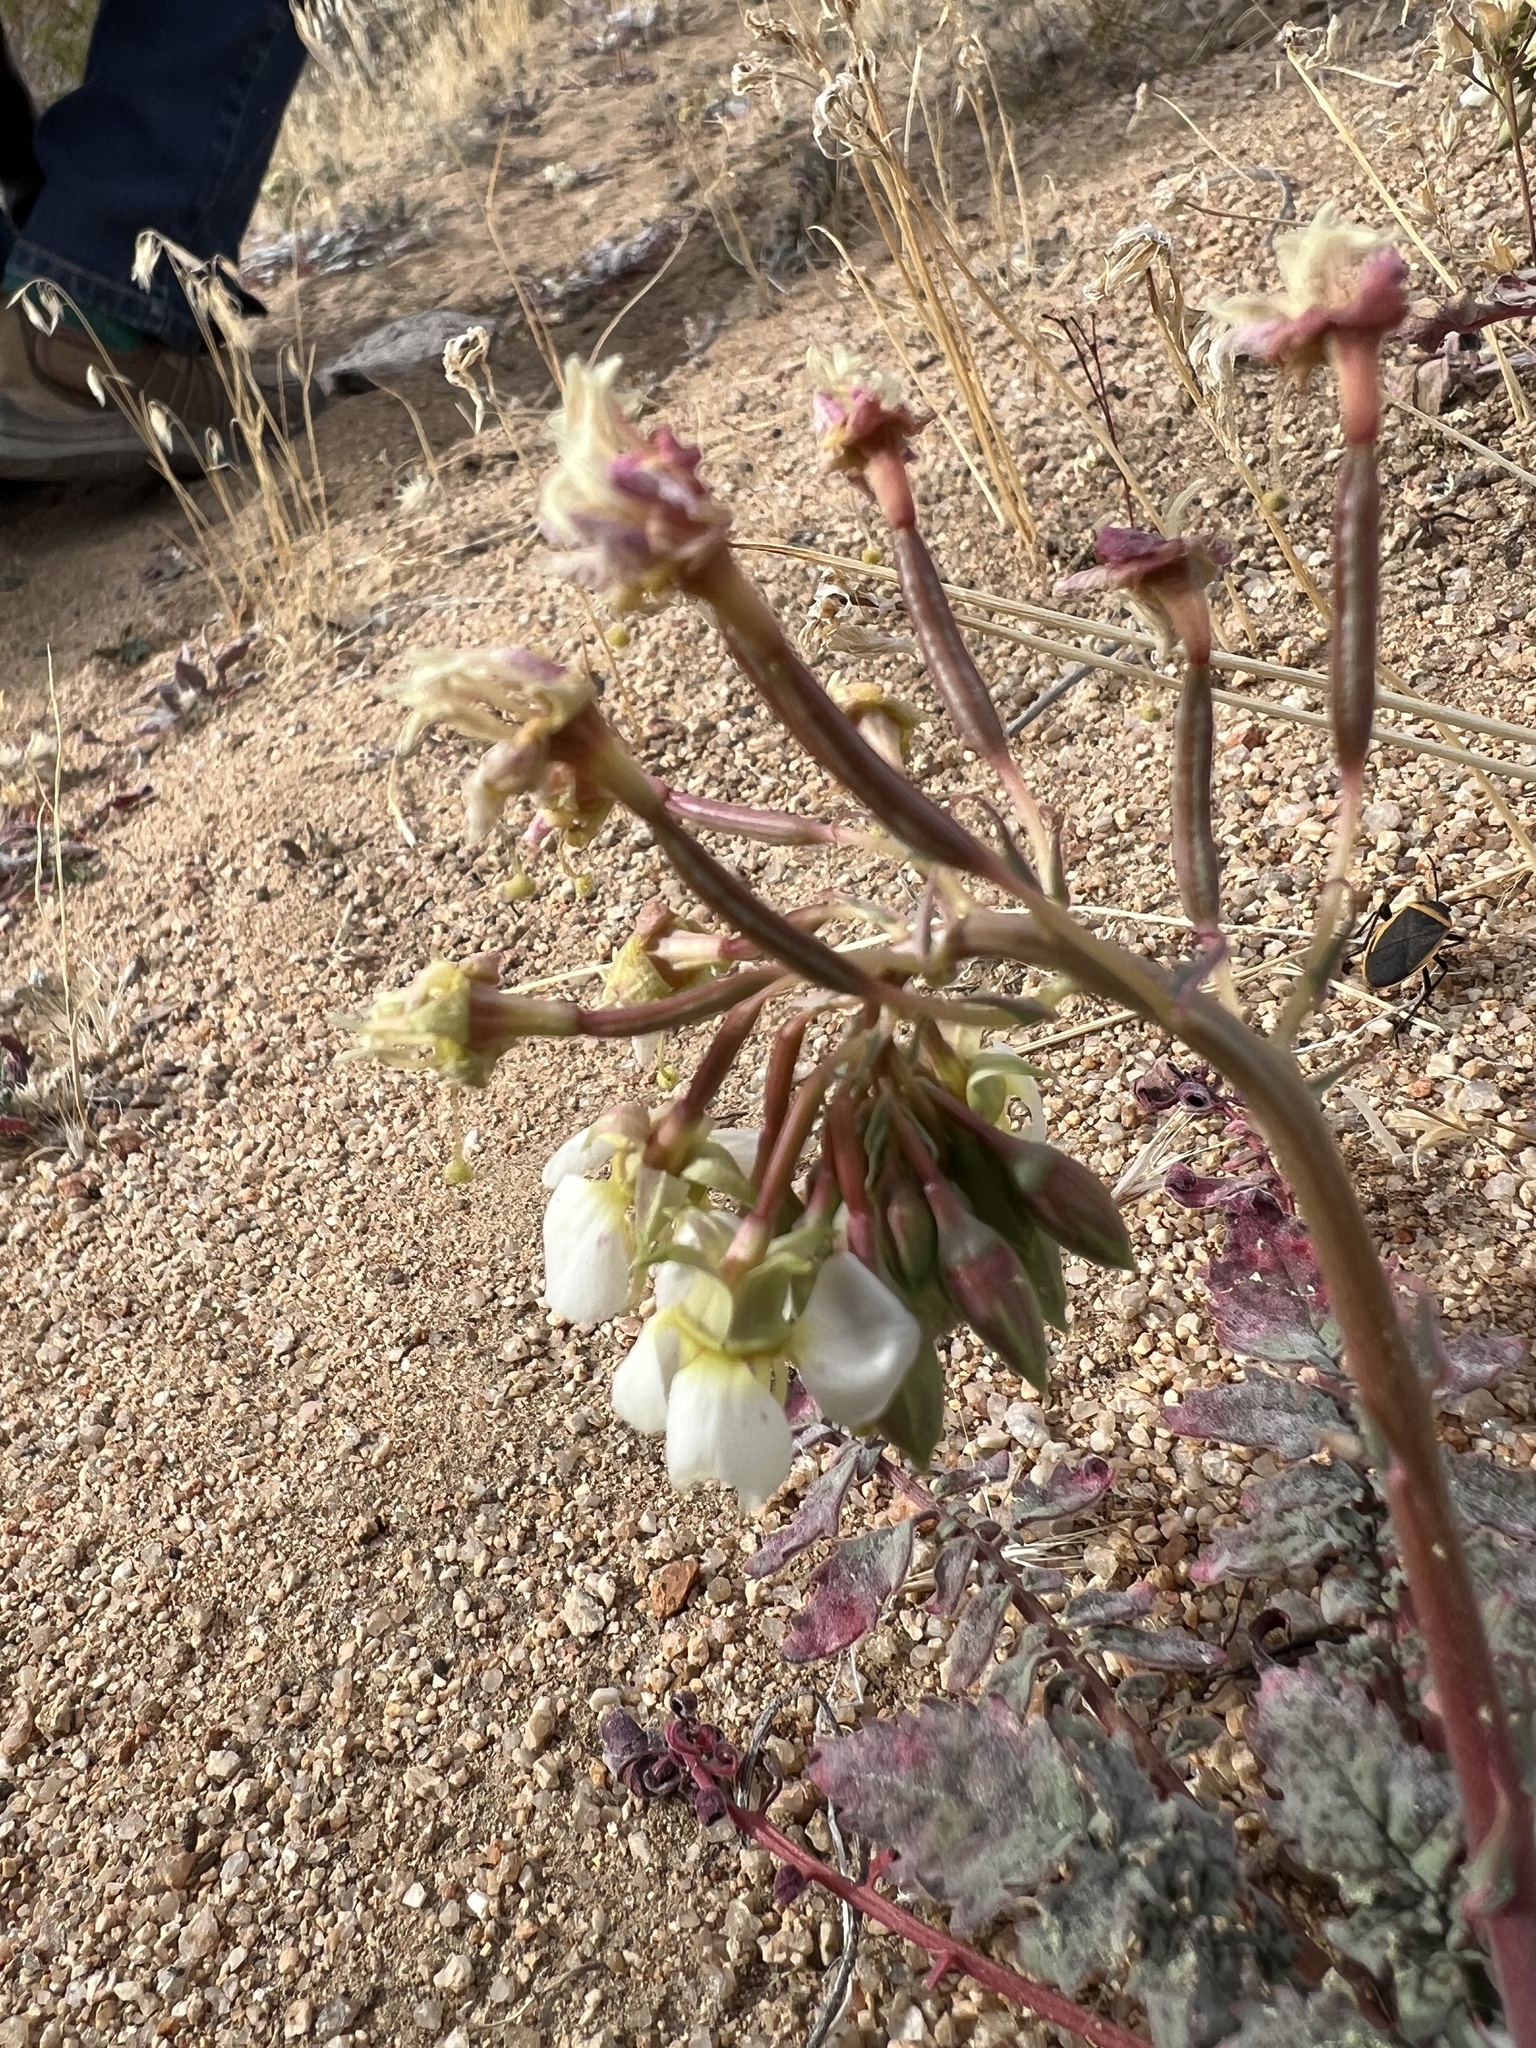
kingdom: Plantae
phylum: Tracheophyta
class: Magnoliopsida
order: Myrtales
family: Onagraceae
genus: Chylismia
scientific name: Chylismia claviformis
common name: Browneyes
